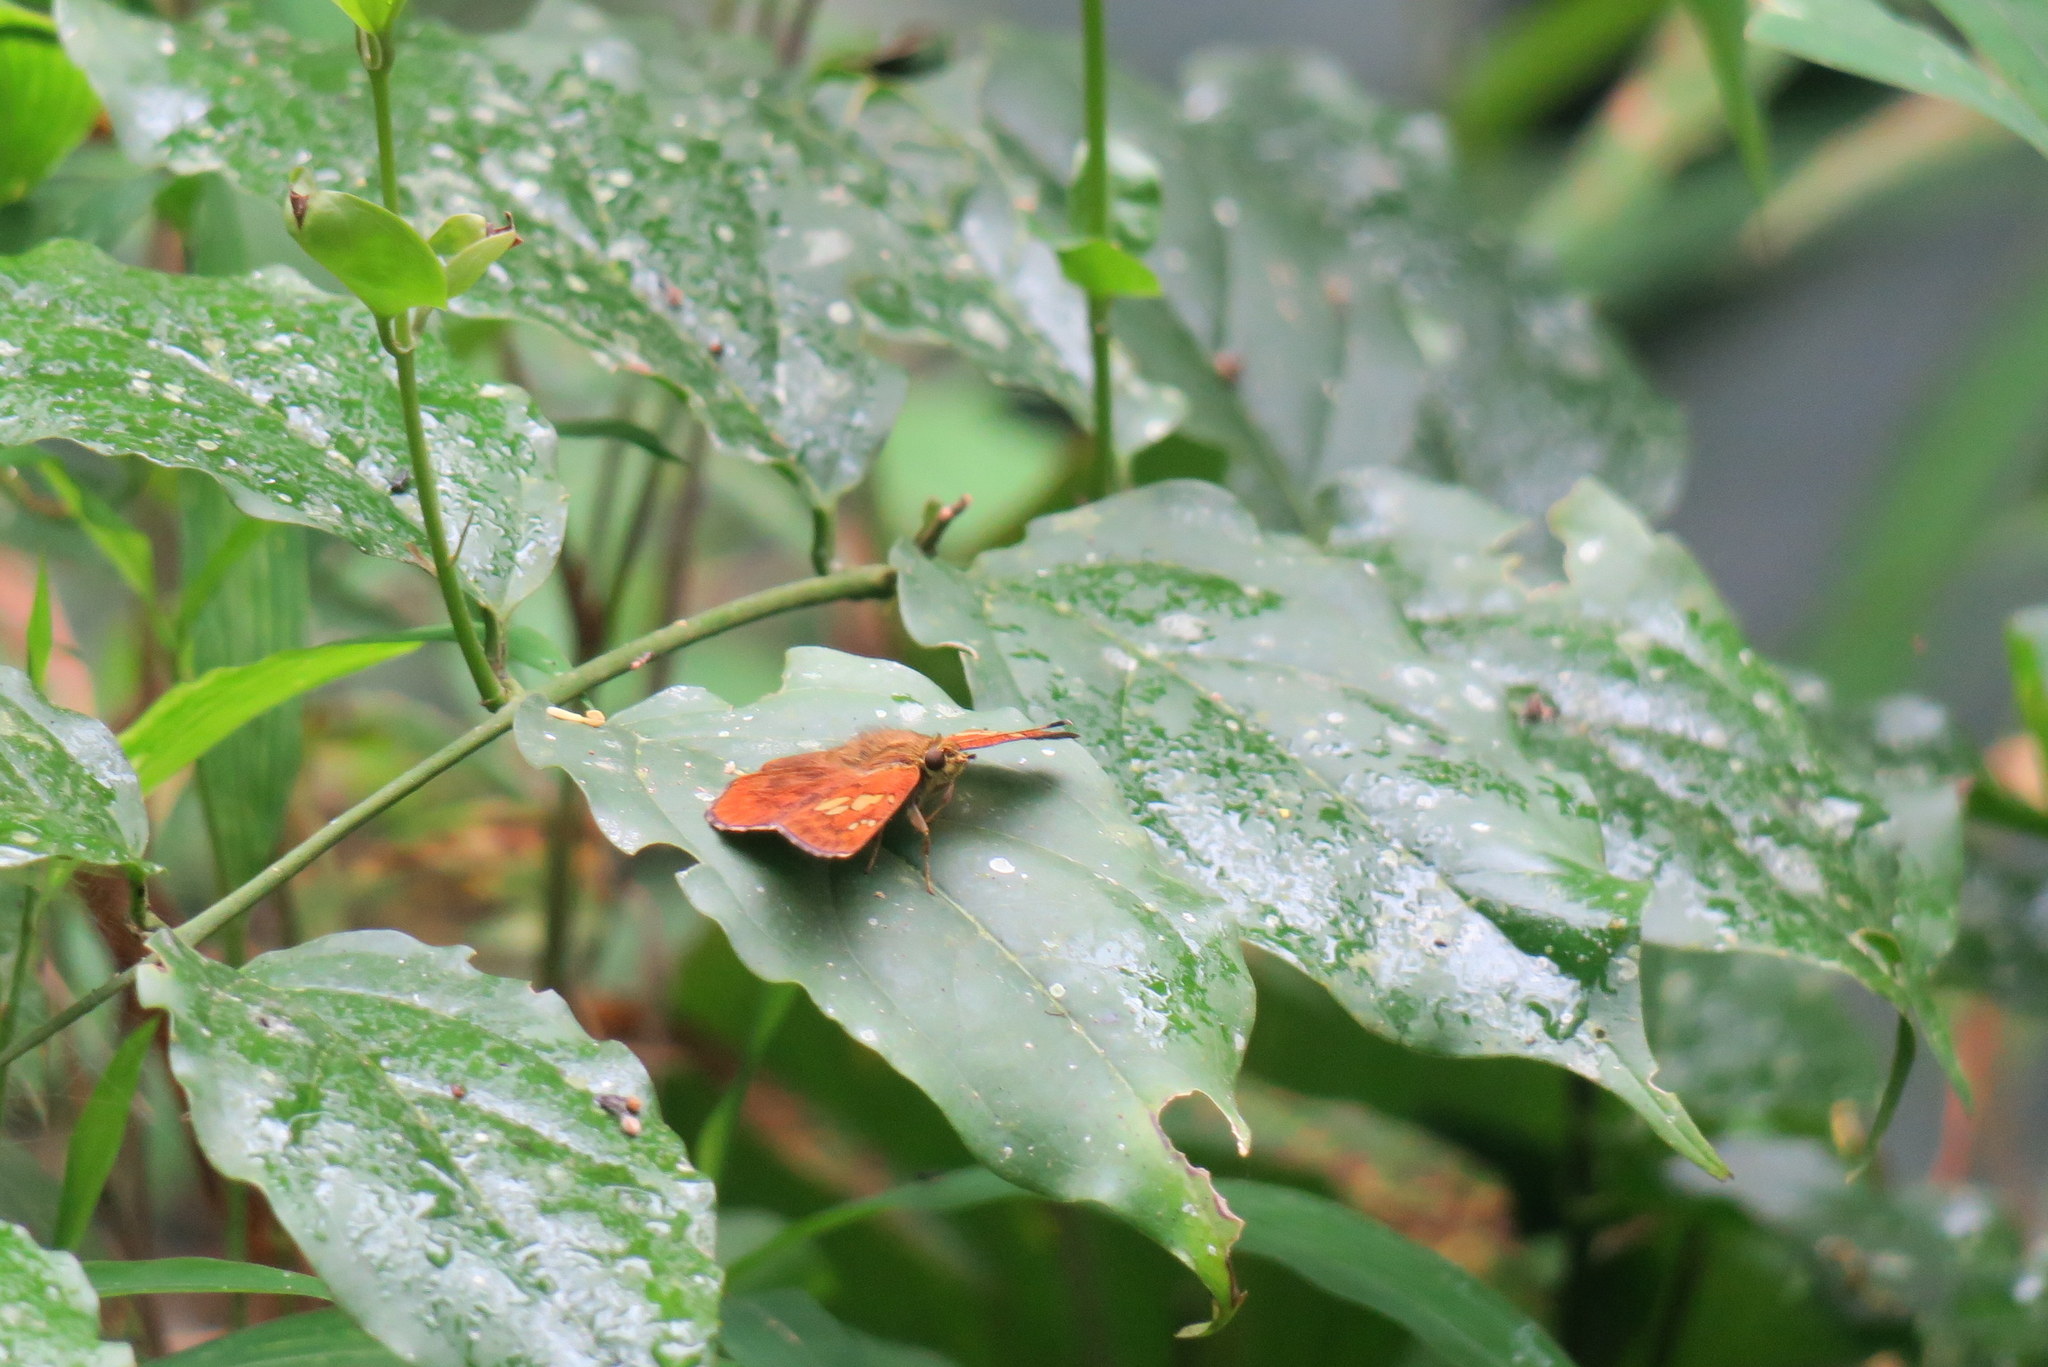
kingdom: Animalia
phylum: Arthropoda
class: Insecta
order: Lepidoptera
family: Hesperiidae
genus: Pseudocoladenia
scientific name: Pseudocoladenia dan
